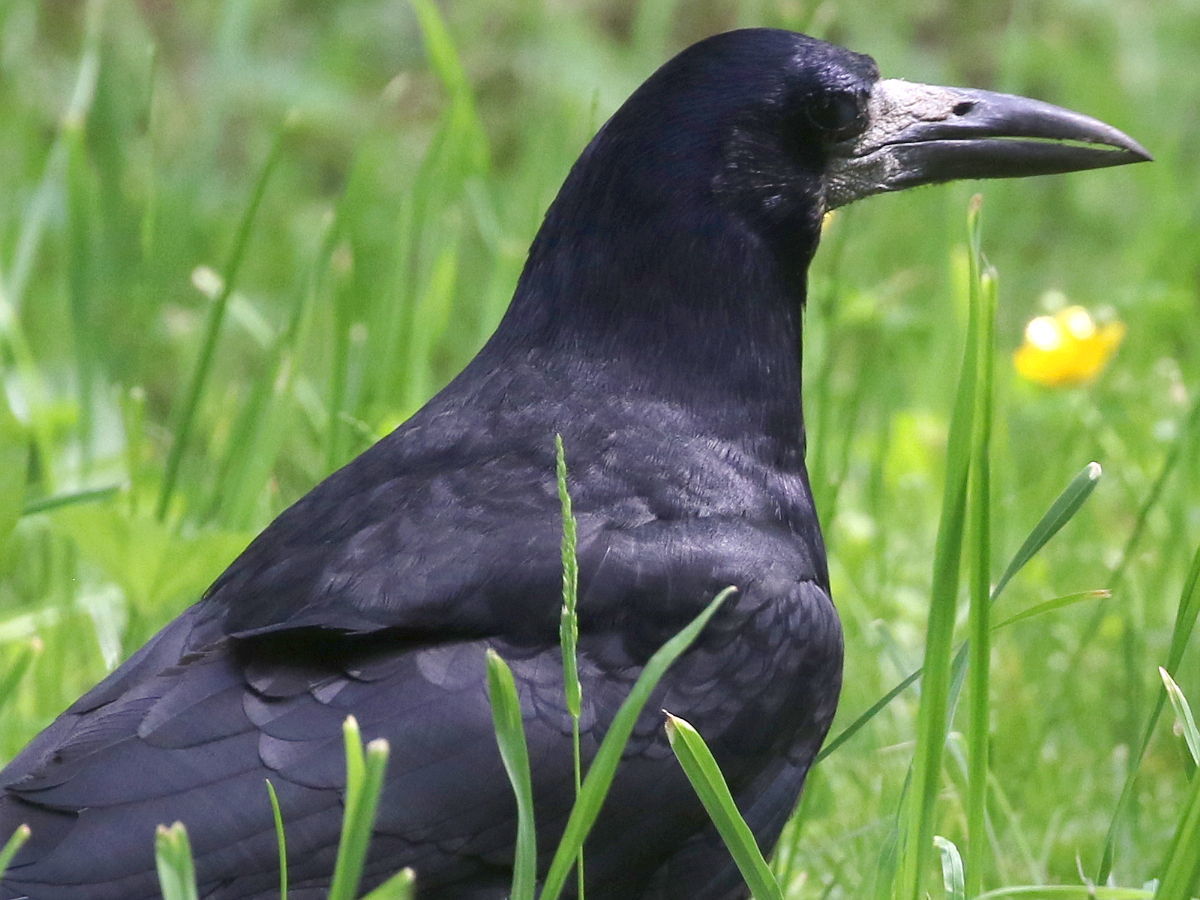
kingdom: Animalia
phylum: Chordata
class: Aves
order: Passeriformes
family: Corvidae
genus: Corvus
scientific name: Corvus frugilegus
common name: Rook
